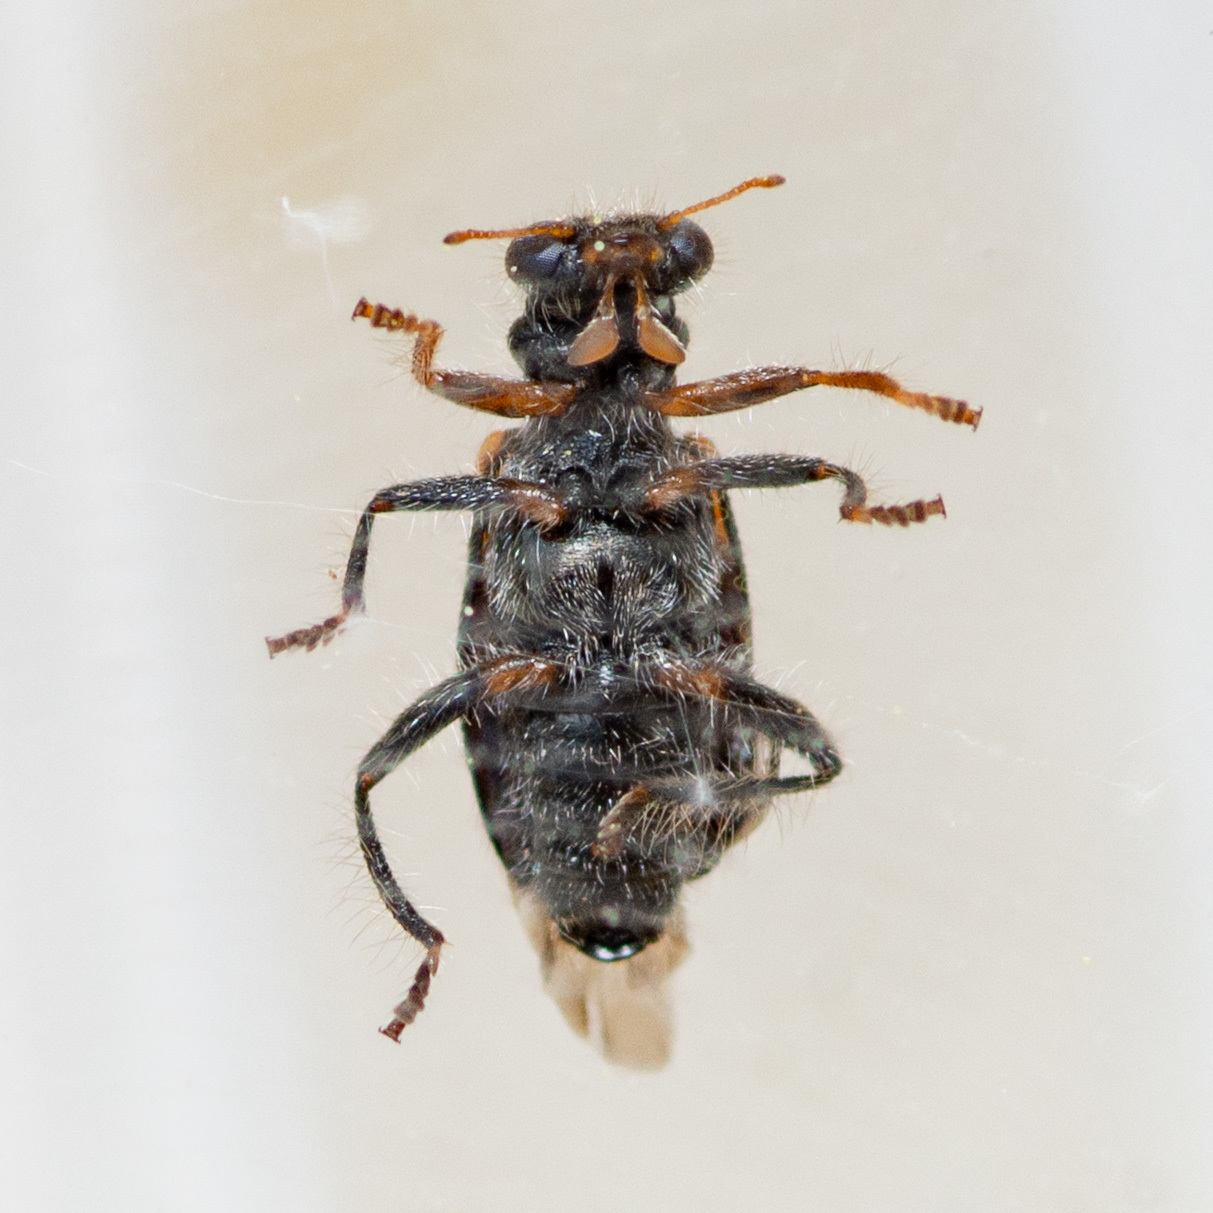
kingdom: Animalia
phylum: Arthropoda
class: Insecta
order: Coleoptera
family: Cleridae
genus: Phyllobaenus
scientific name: Phyllobaenus humeralis
